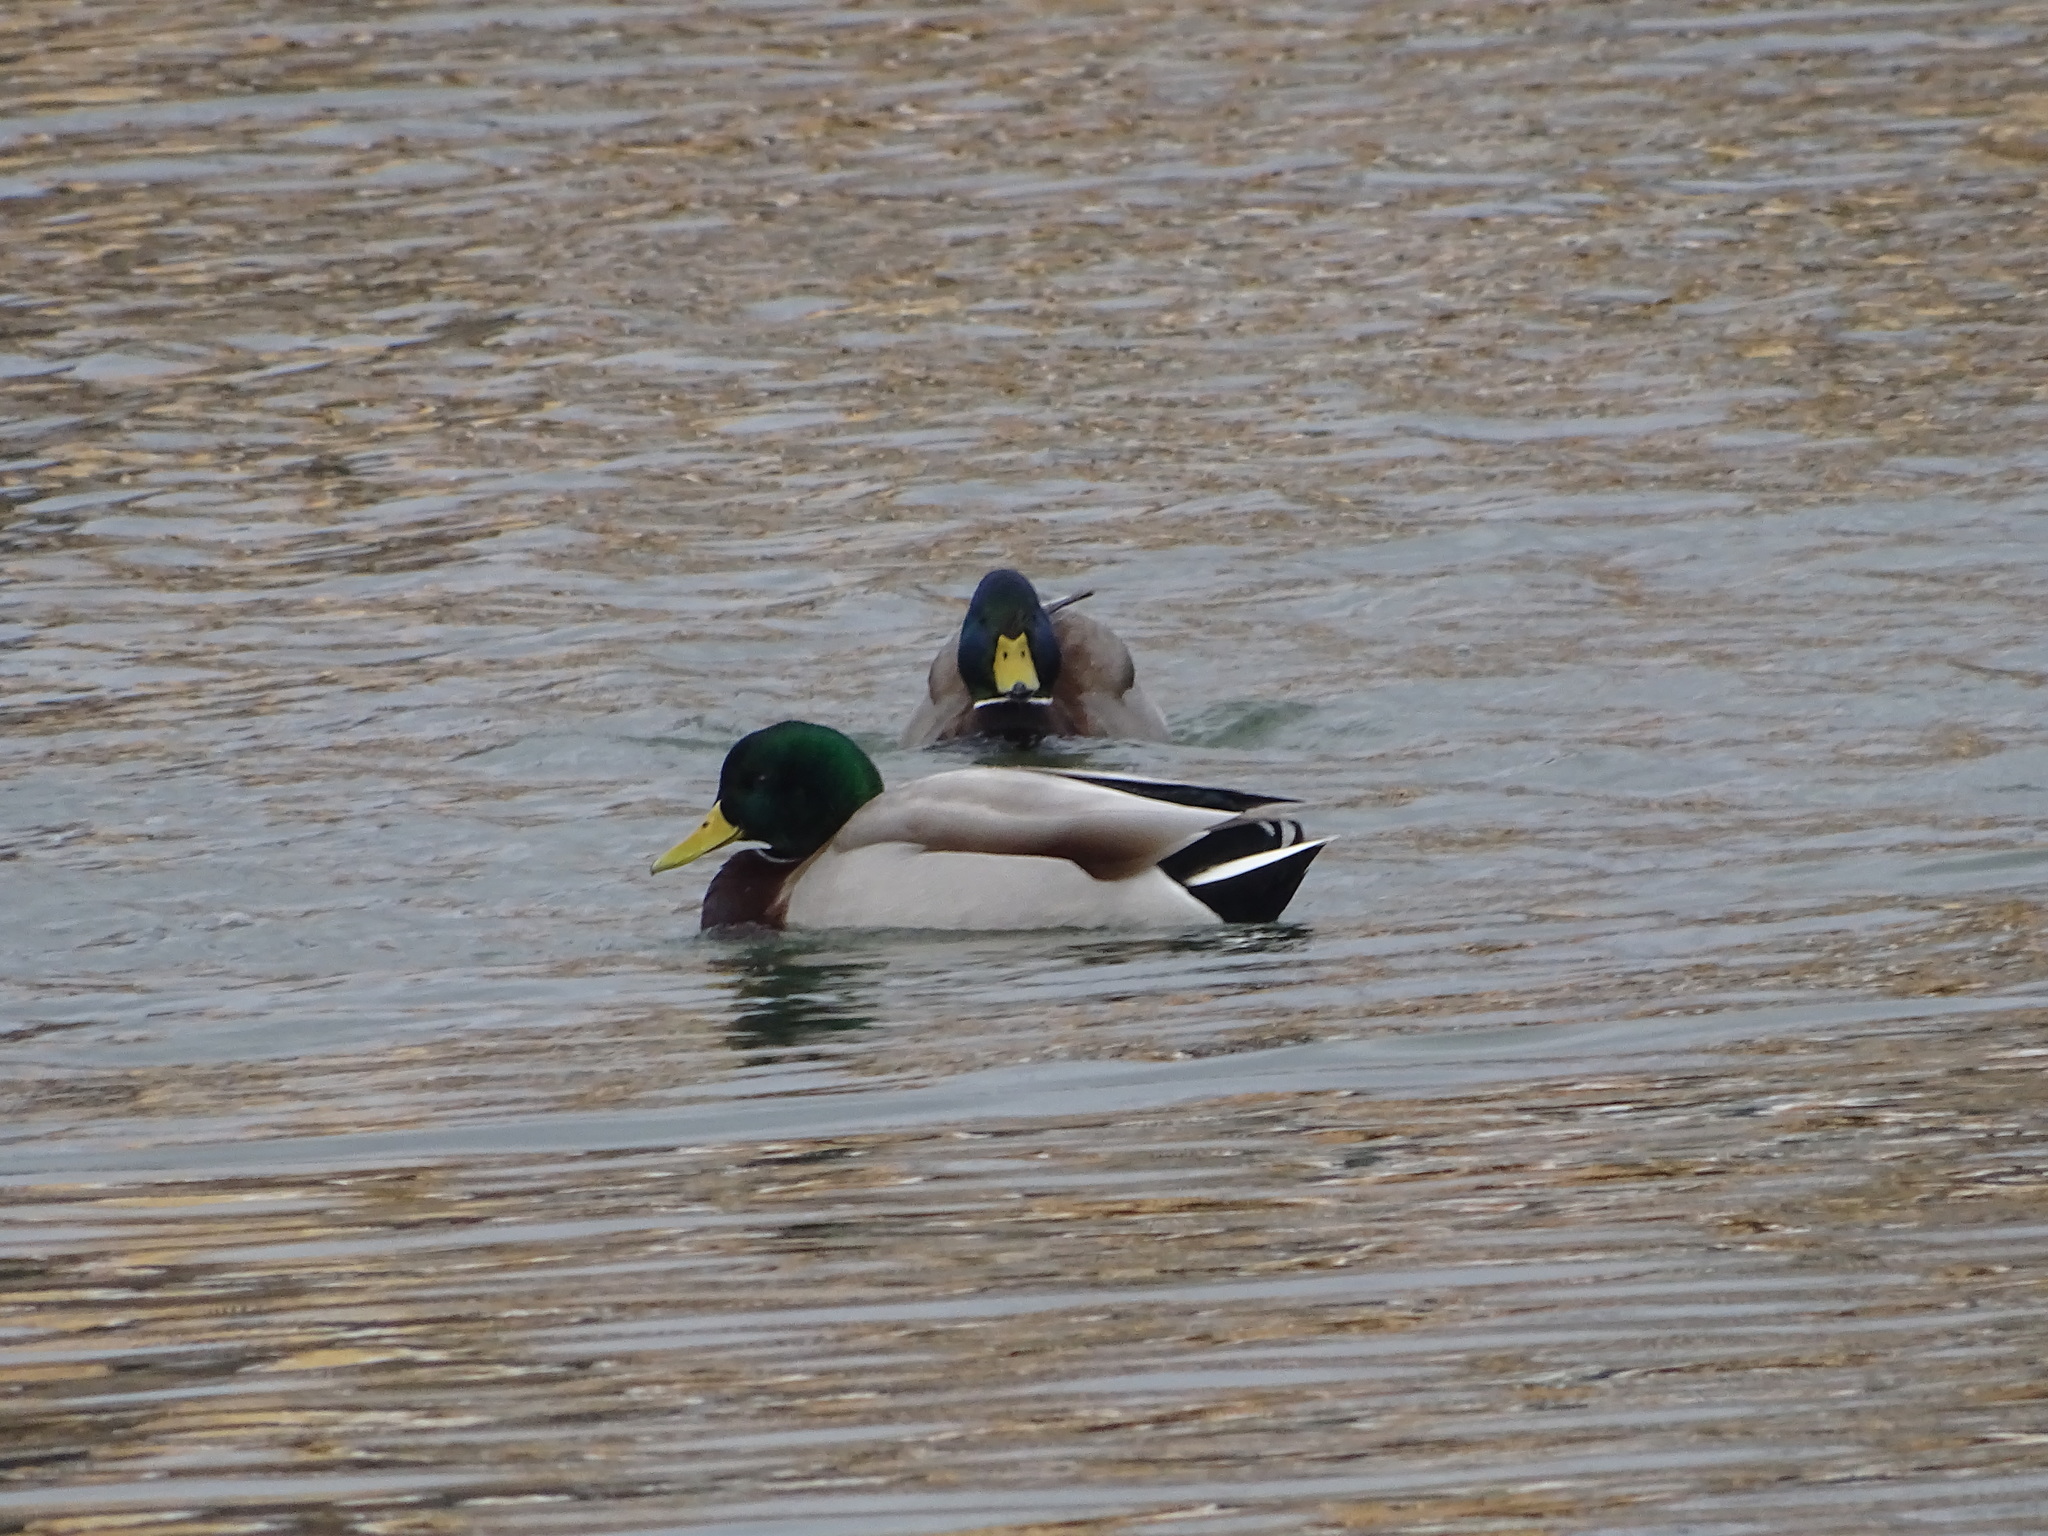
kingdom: Animalia
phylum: Chordata
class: Aves
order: Anseriformes
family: Anatidae
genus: Anas
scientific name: Anas platyrhynchos
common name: Mallard
